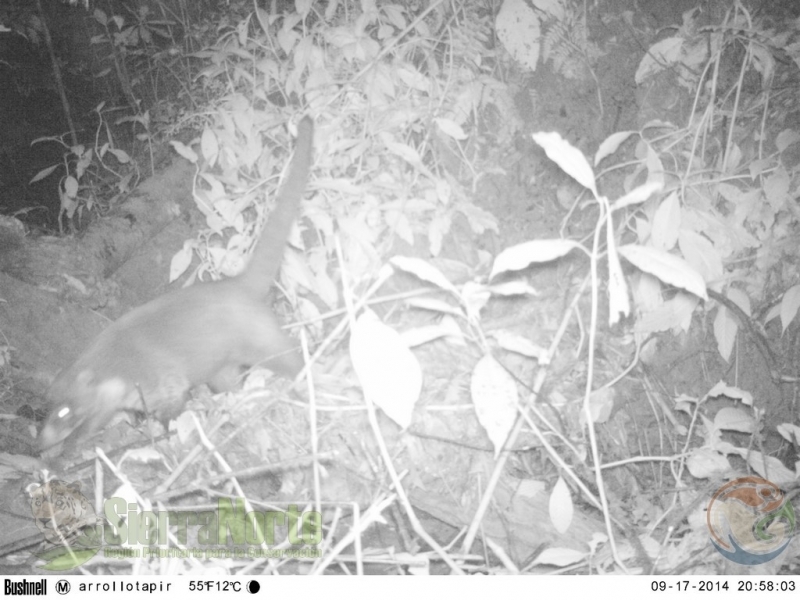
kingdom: Animalia
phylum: Chordata
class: Mammalia
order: Carnivora
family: Procyonidae
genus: Nasua
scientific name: Nasua narica
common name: White-nosed coati
